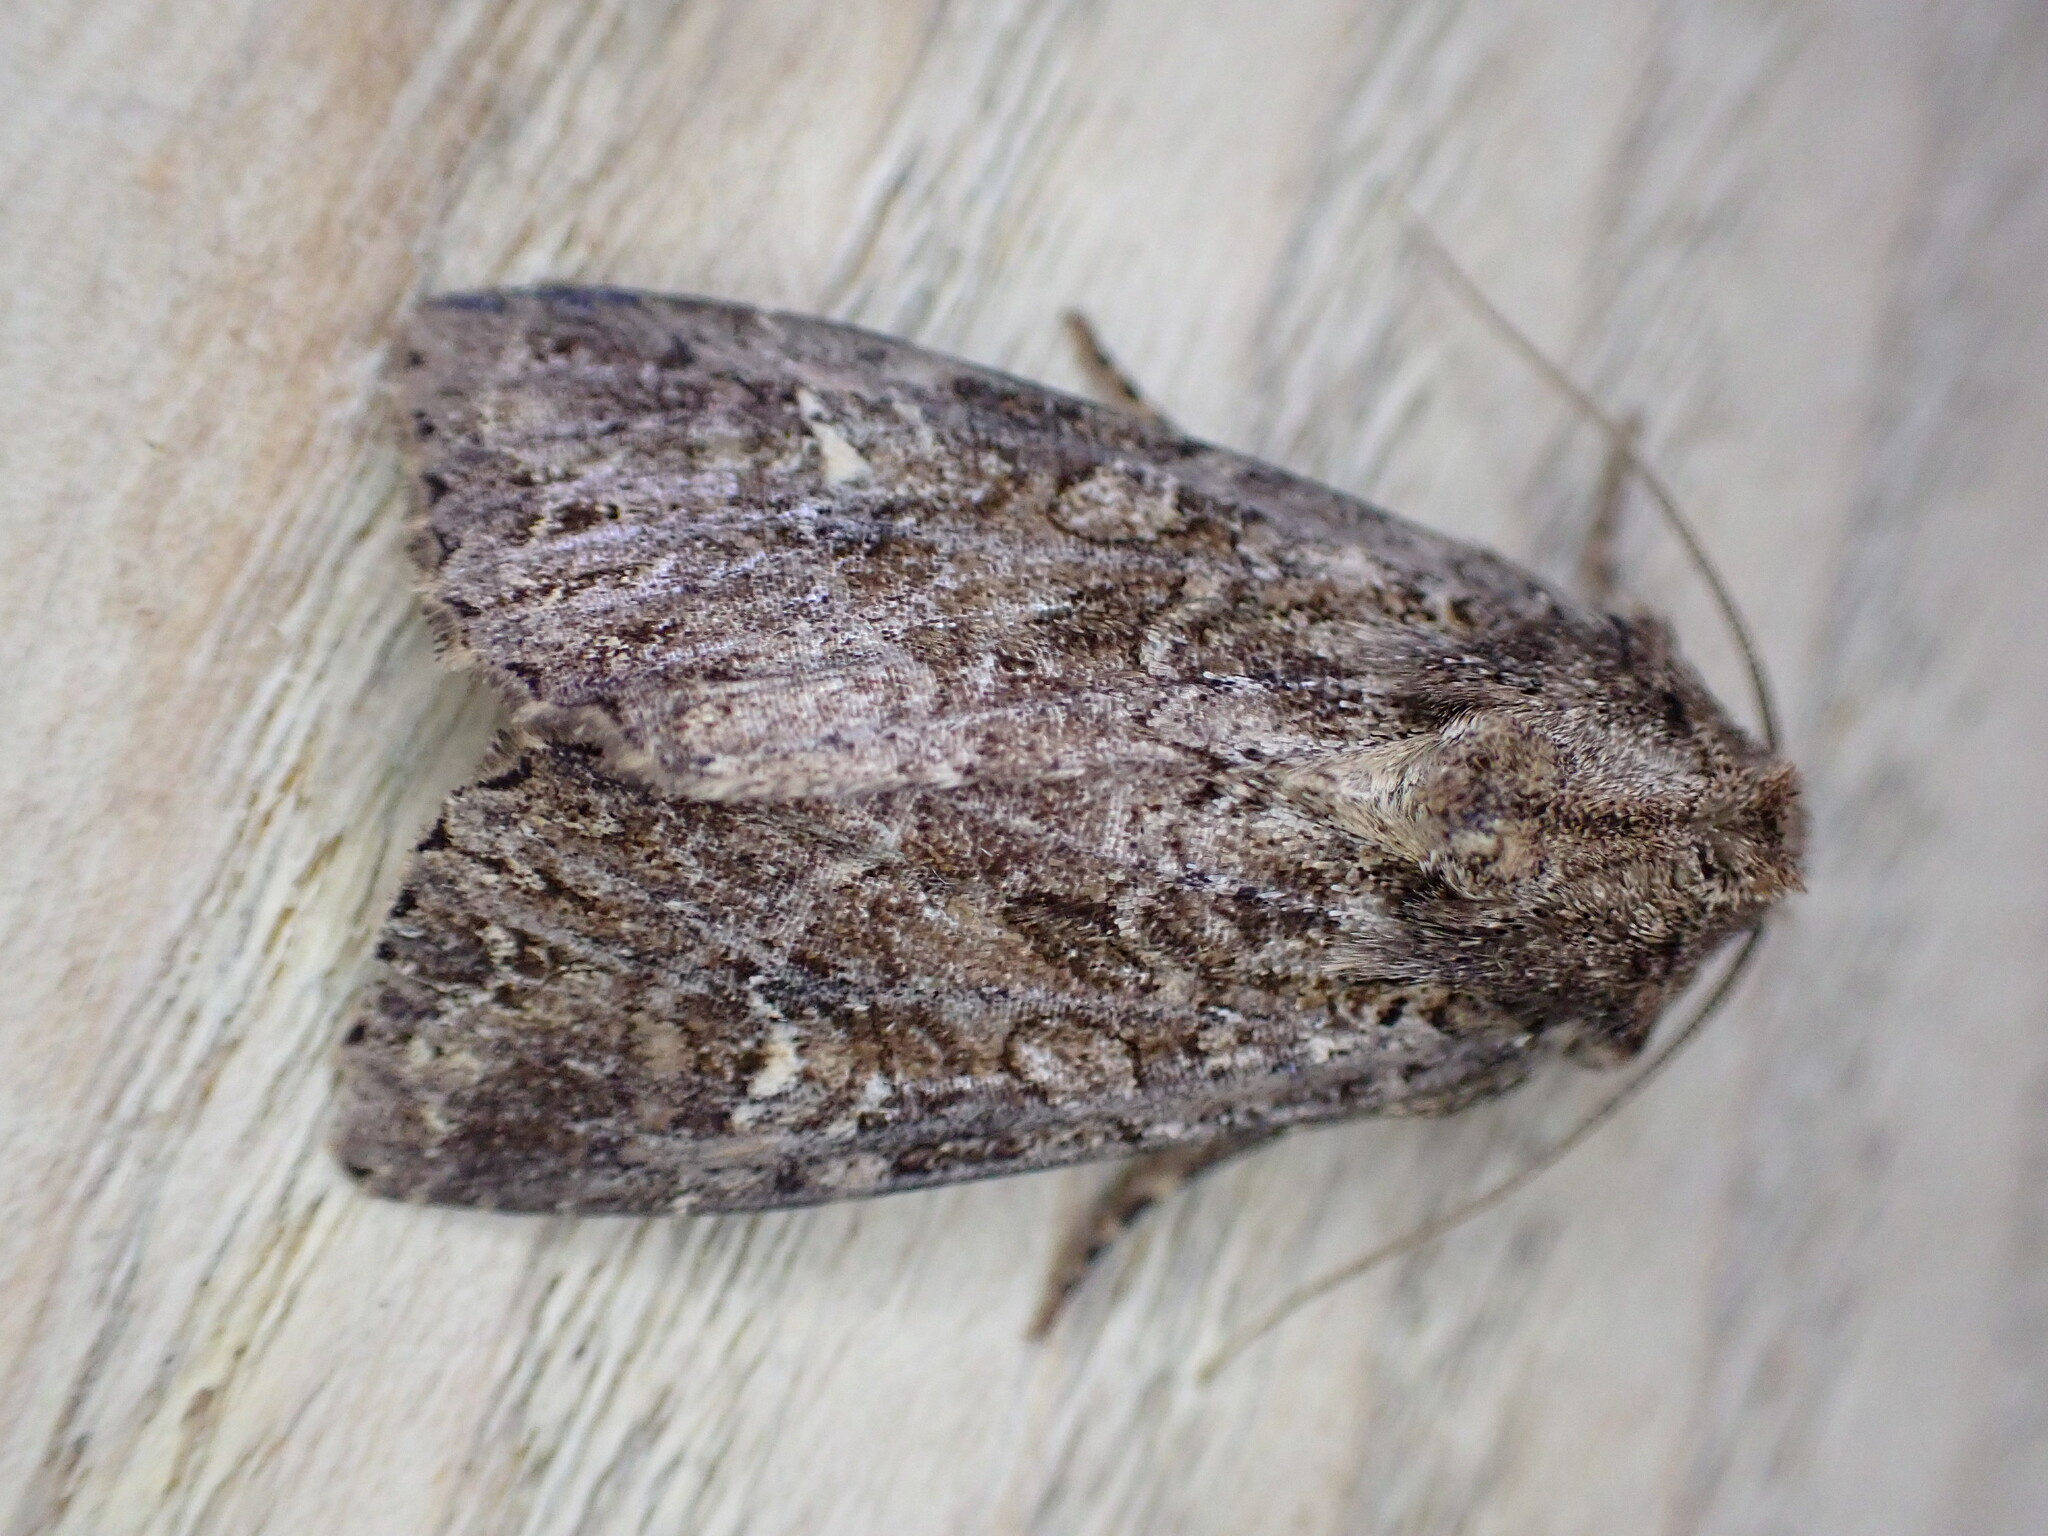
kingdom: Animalia
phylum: Arthropoda
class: Insecta
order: Lepidoptera
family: Noctuidae
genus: Apamea
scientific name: Apamea unanimis
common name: Small clouded brindle
